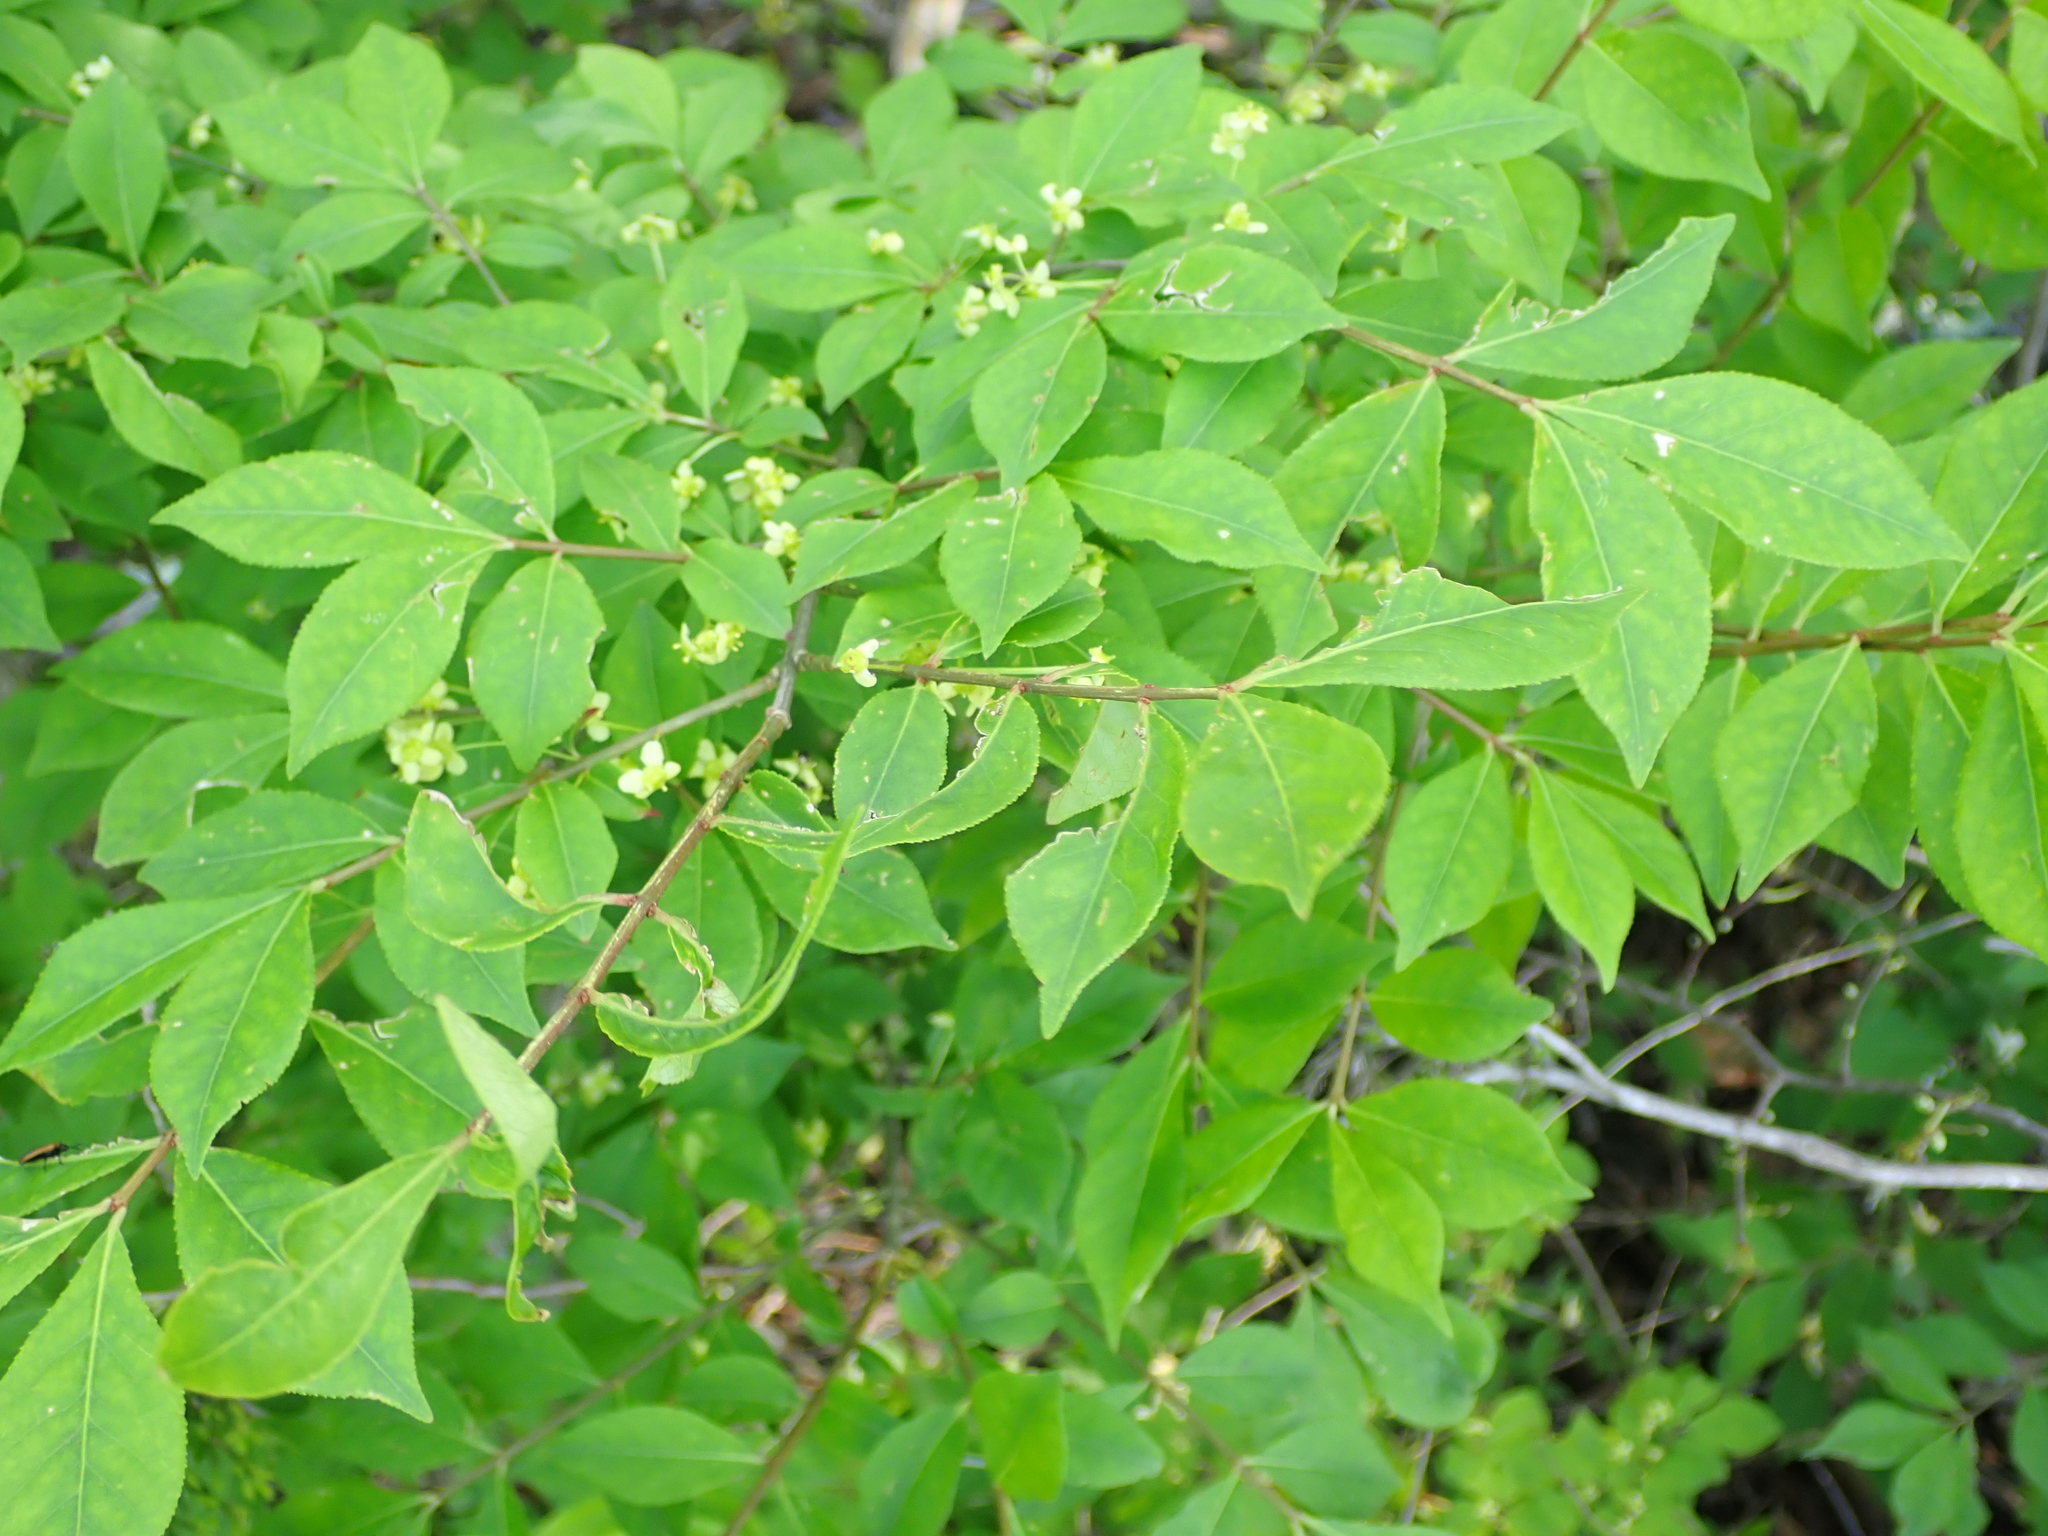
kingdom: Plantae
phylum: Tracheophyta
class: Magnoliopsida
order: Celastrales
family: Celastraceae
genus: Euonymus
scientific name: Euonymus alatus
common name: Winged euonymus
